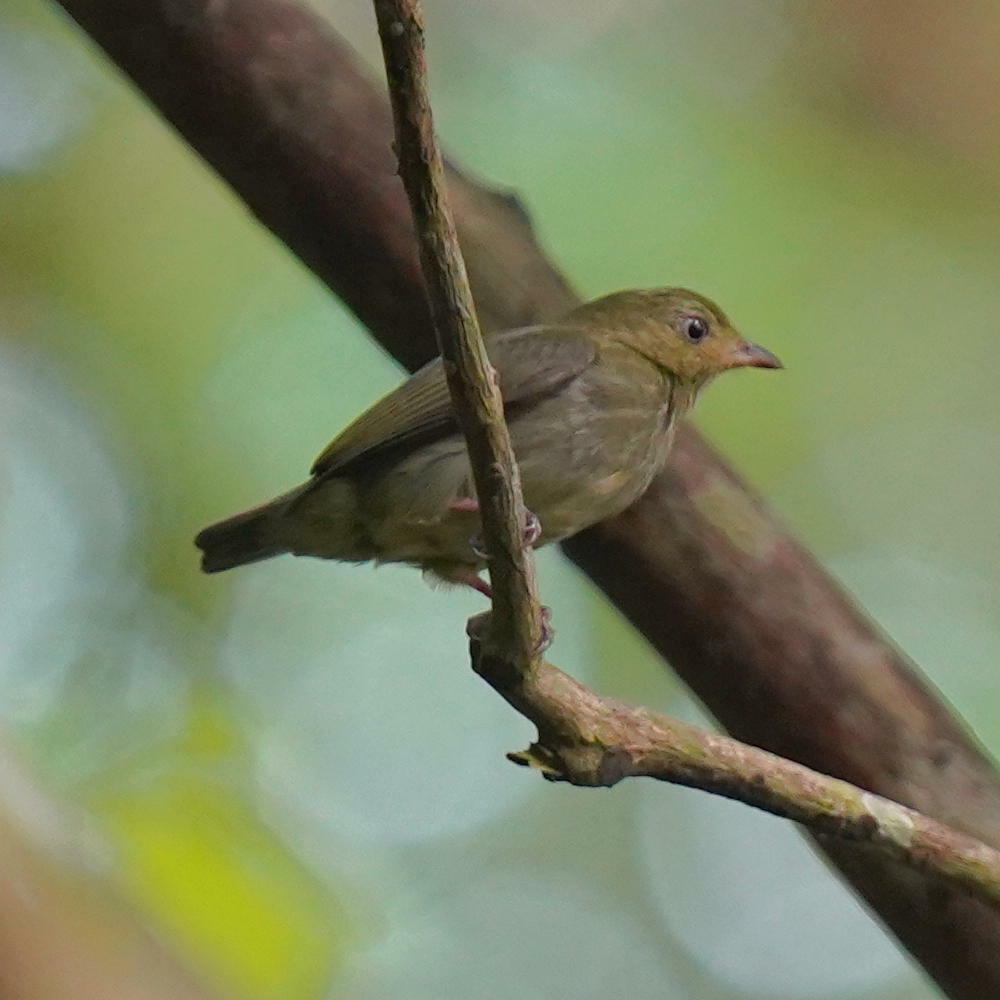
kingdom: Animalia
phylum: Chordata
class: Aves
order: Passeriformes
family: Pipridae
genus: Pipra
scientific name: Pipra mentalis
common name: Red-capped manakin
